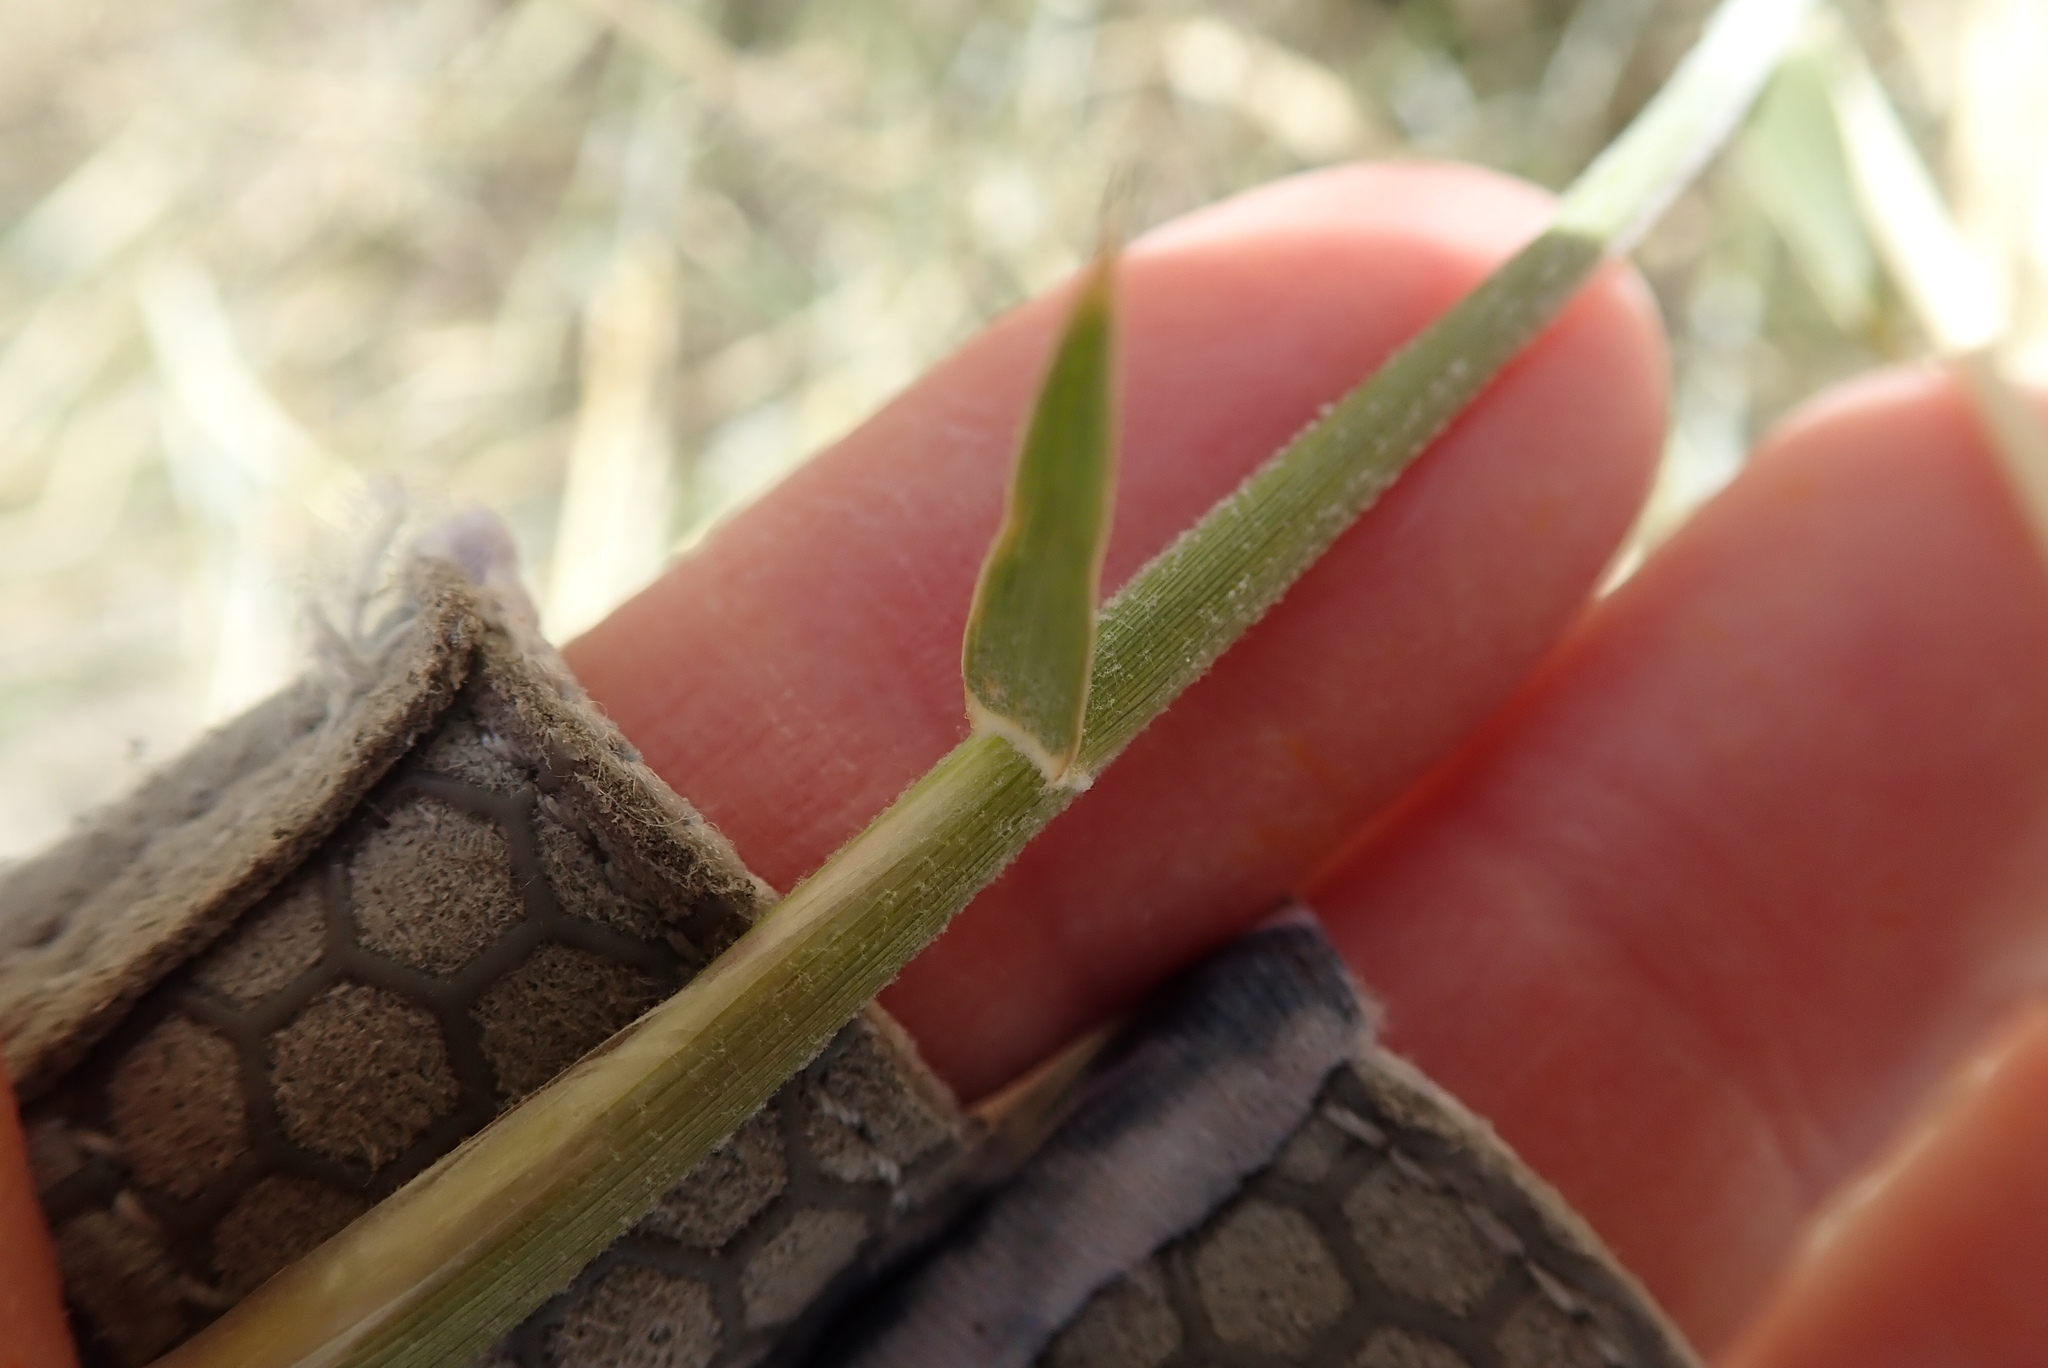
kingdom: Plantae
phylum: Tracheophyta
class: Liliopsida
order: Poales
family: Poaceae
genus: Hilaria
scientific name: Hilaria rigida
